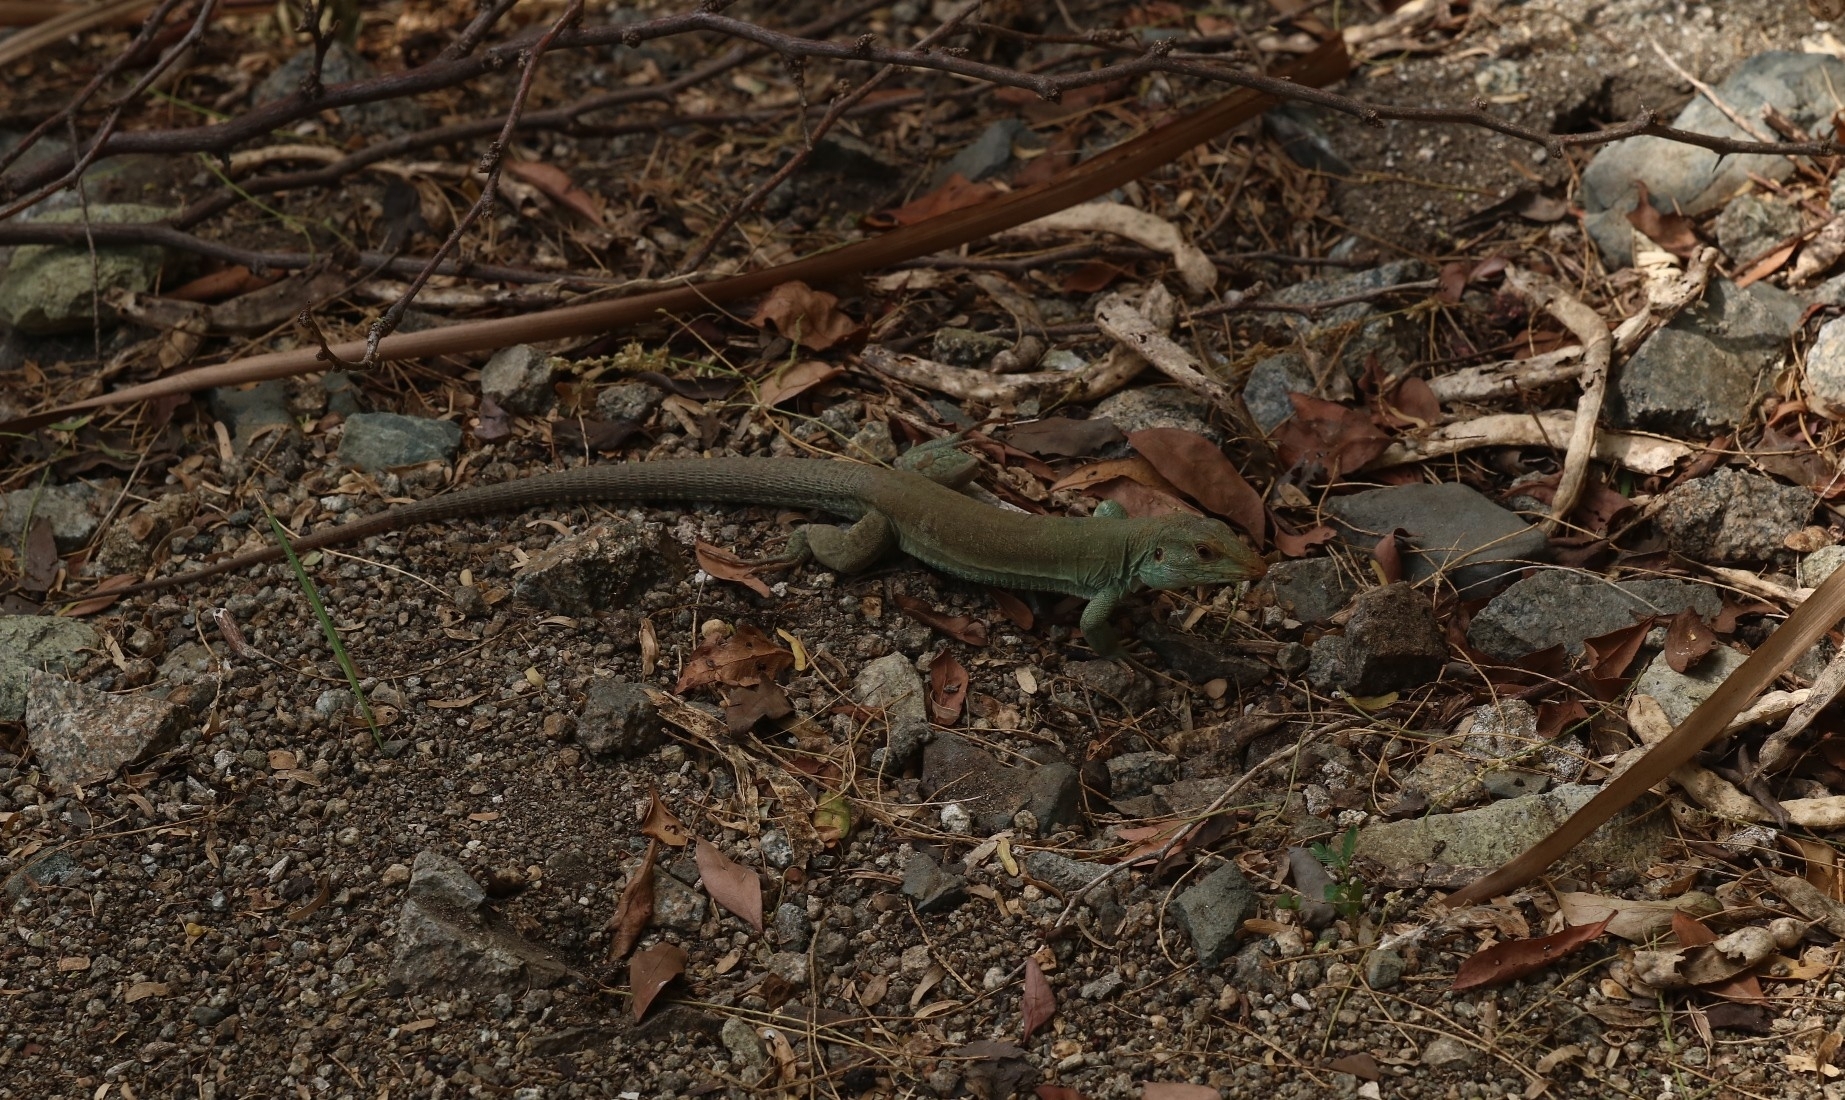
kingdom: Animalia
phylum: Chordata
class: Squamata
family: Teiidae
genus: Ameiva
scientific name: Ameiva bifrontata
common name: Cope's ameiva
